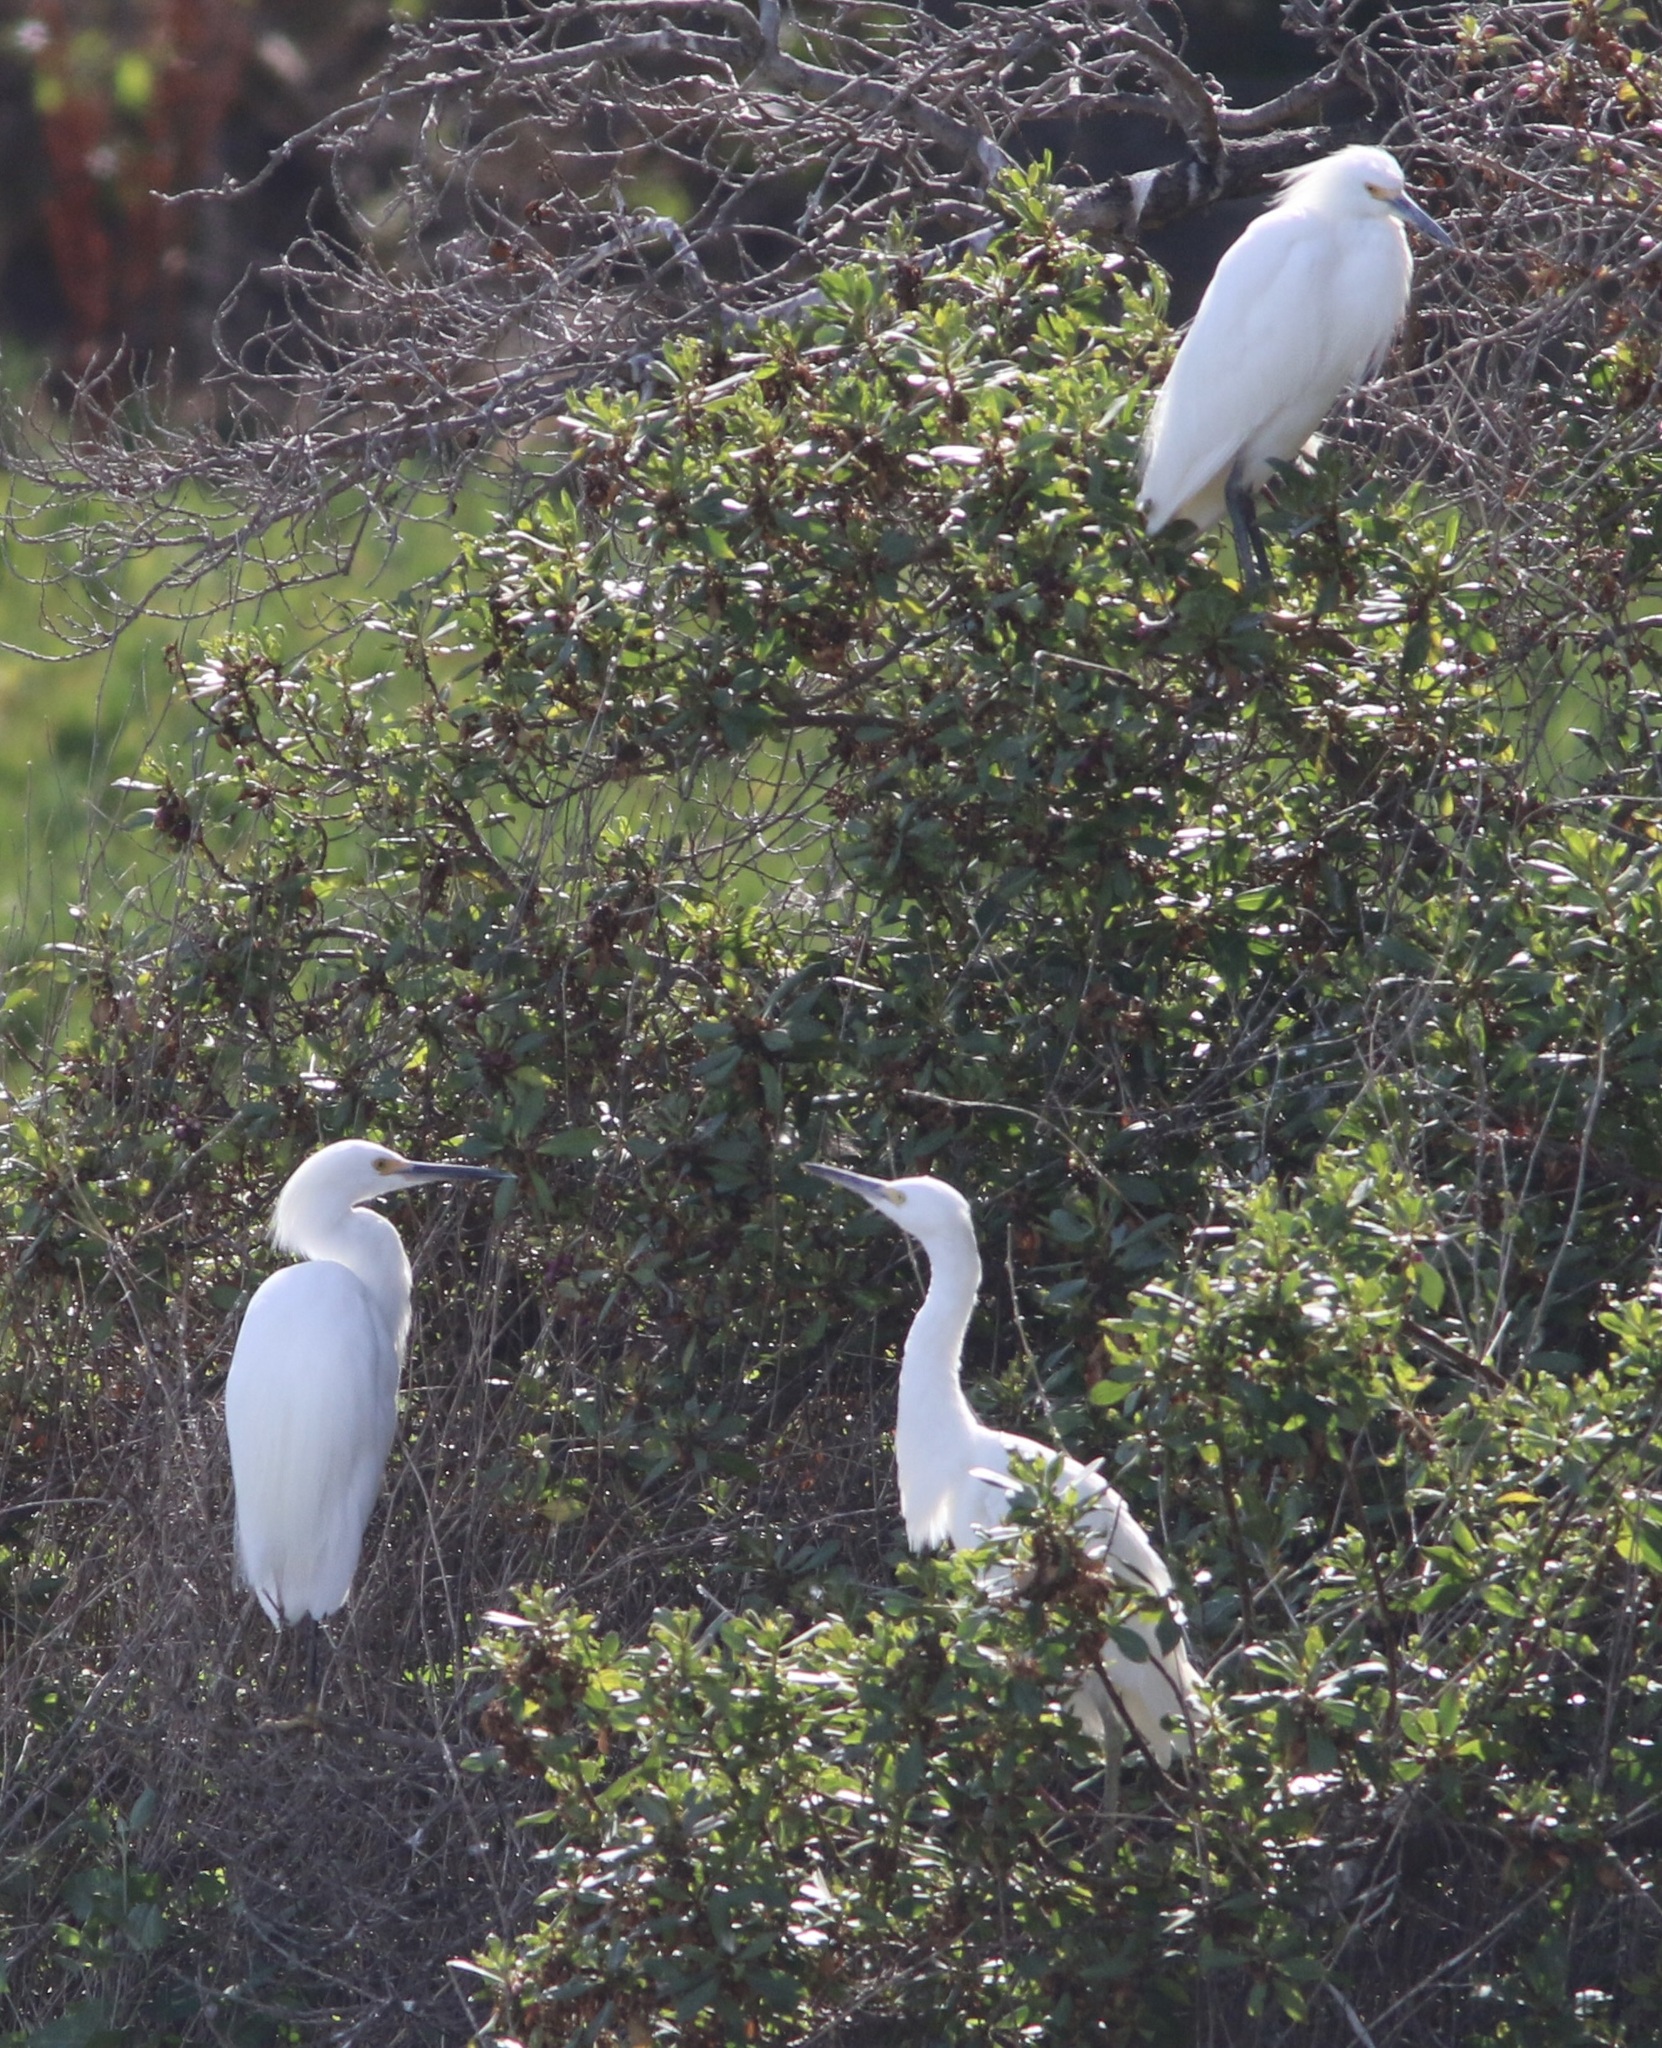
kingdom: Animalia
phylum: Chordata
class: Aves
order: Pelecaniformes
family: Ardeidae
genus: Egretta
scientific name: Egretta thula
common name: Snowy egret
